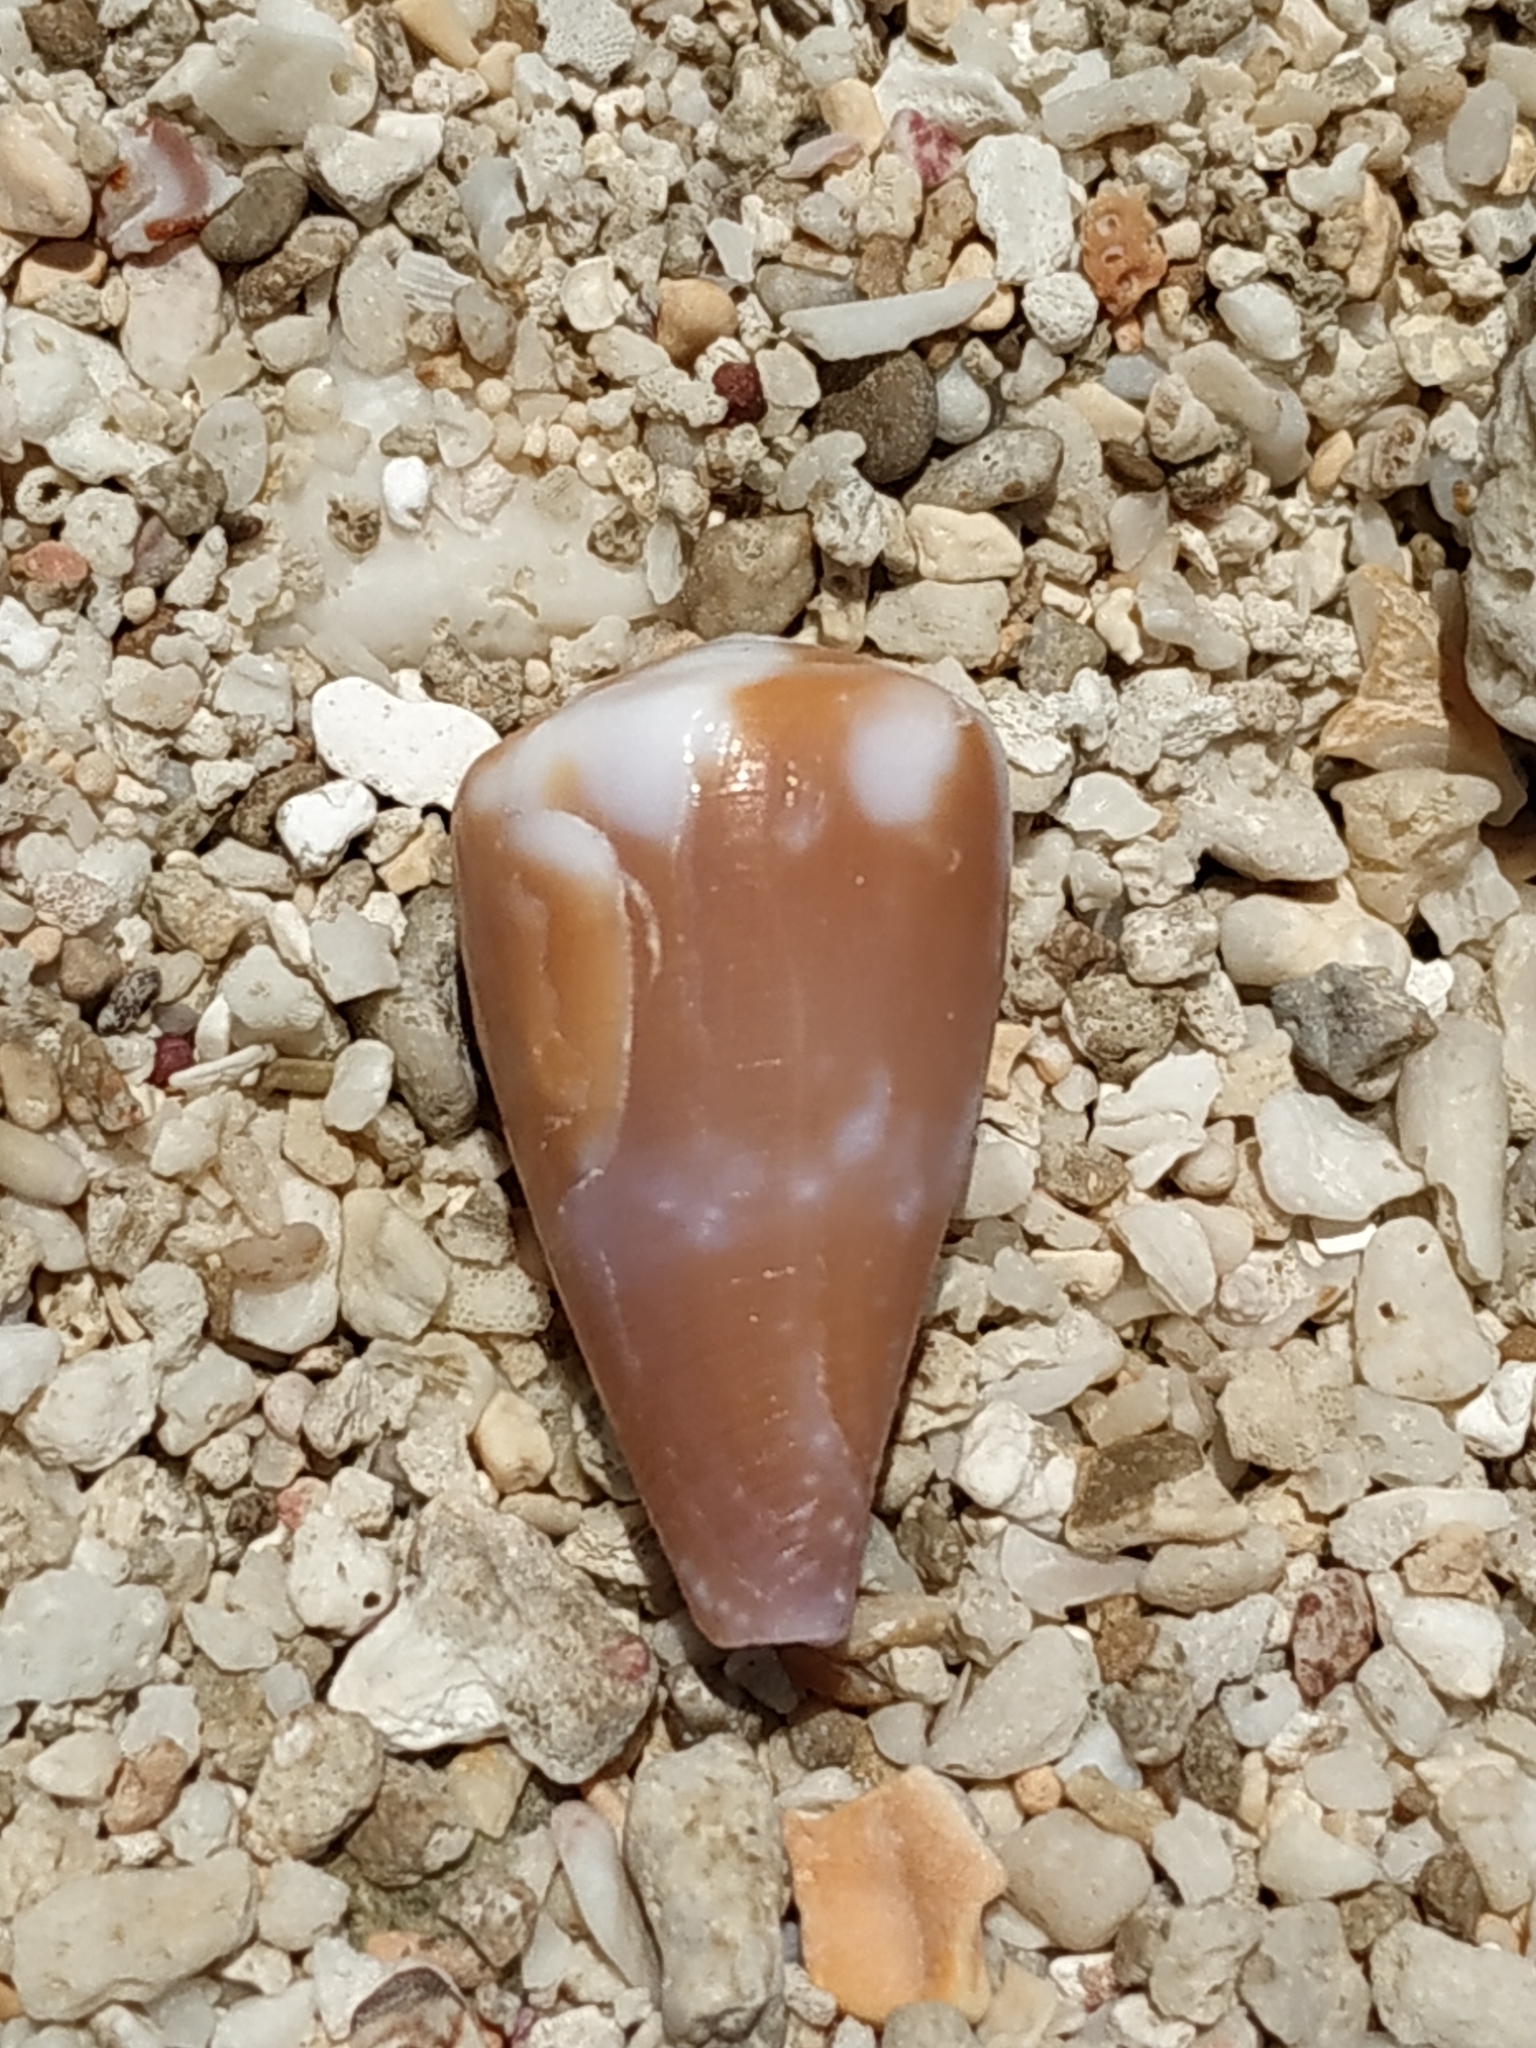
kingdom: Animalia
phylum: Mollusca
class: Gastropoda
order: Neogastropoda
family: Conidae
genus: Conus
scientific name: Conus rattus
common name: Rat cone
